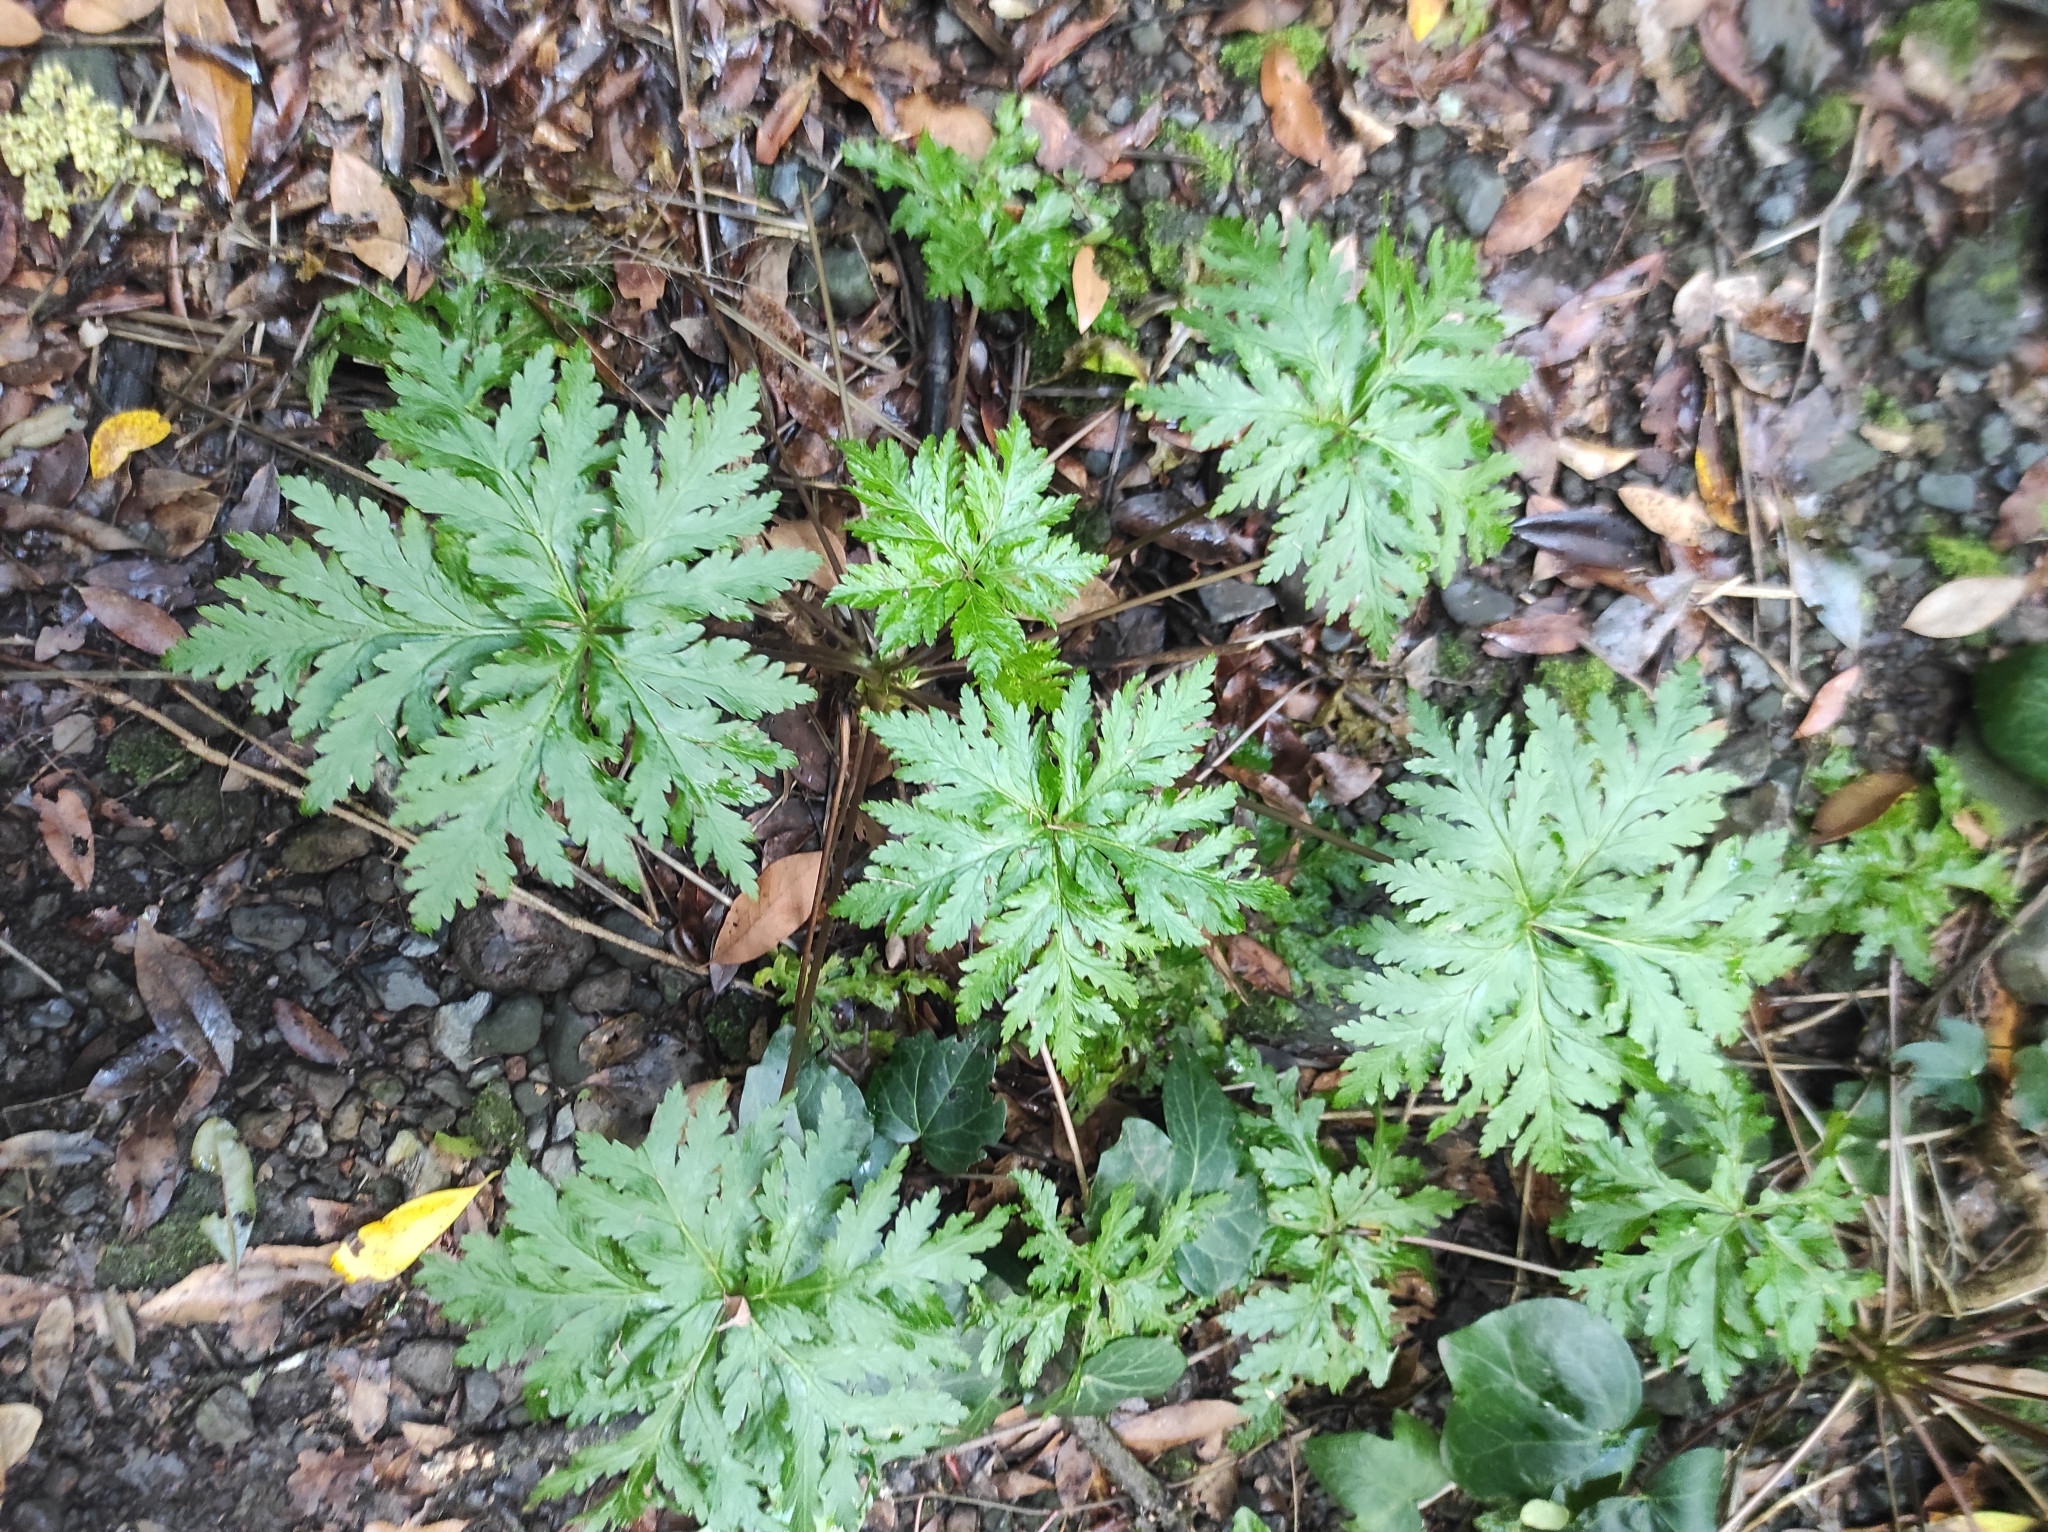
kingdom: Plantae
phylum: Tracheophyta
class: Magnoliopsida
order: Geraniales
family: Geraniaceae
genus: Geranium
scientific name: Geranium reuteri
